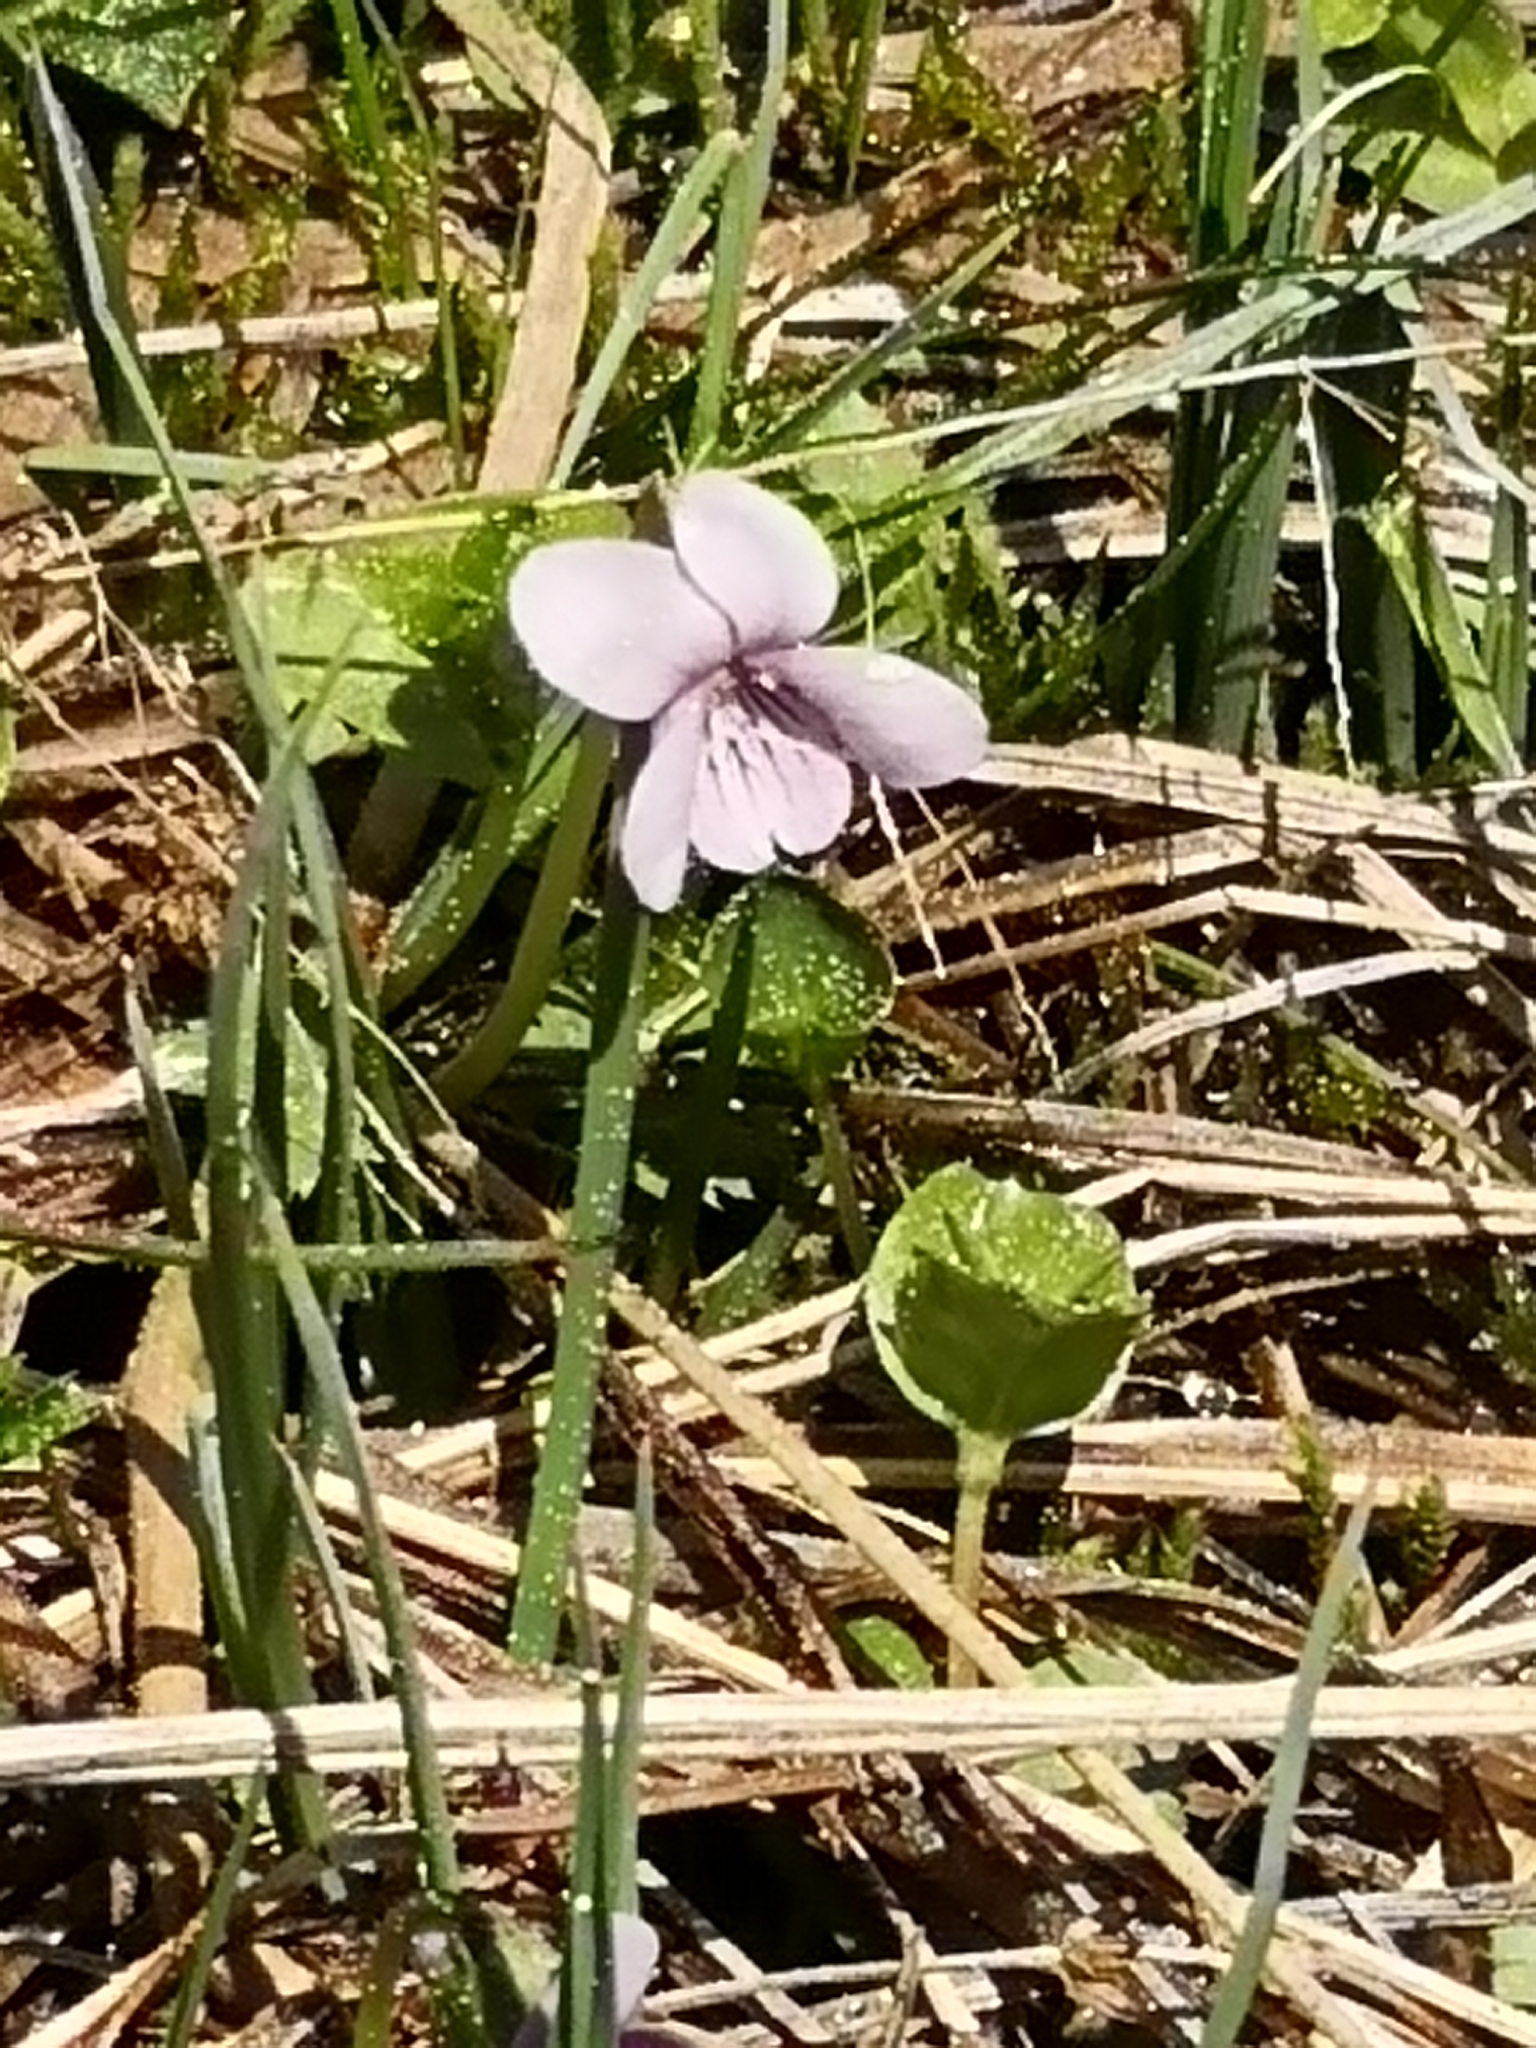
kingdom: Plantae
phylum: Tracheophyta
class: Magnoliopsida
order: Malpighiales
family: Violaceae
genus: Viola
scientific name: Viola palustris
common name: Marsh violet
